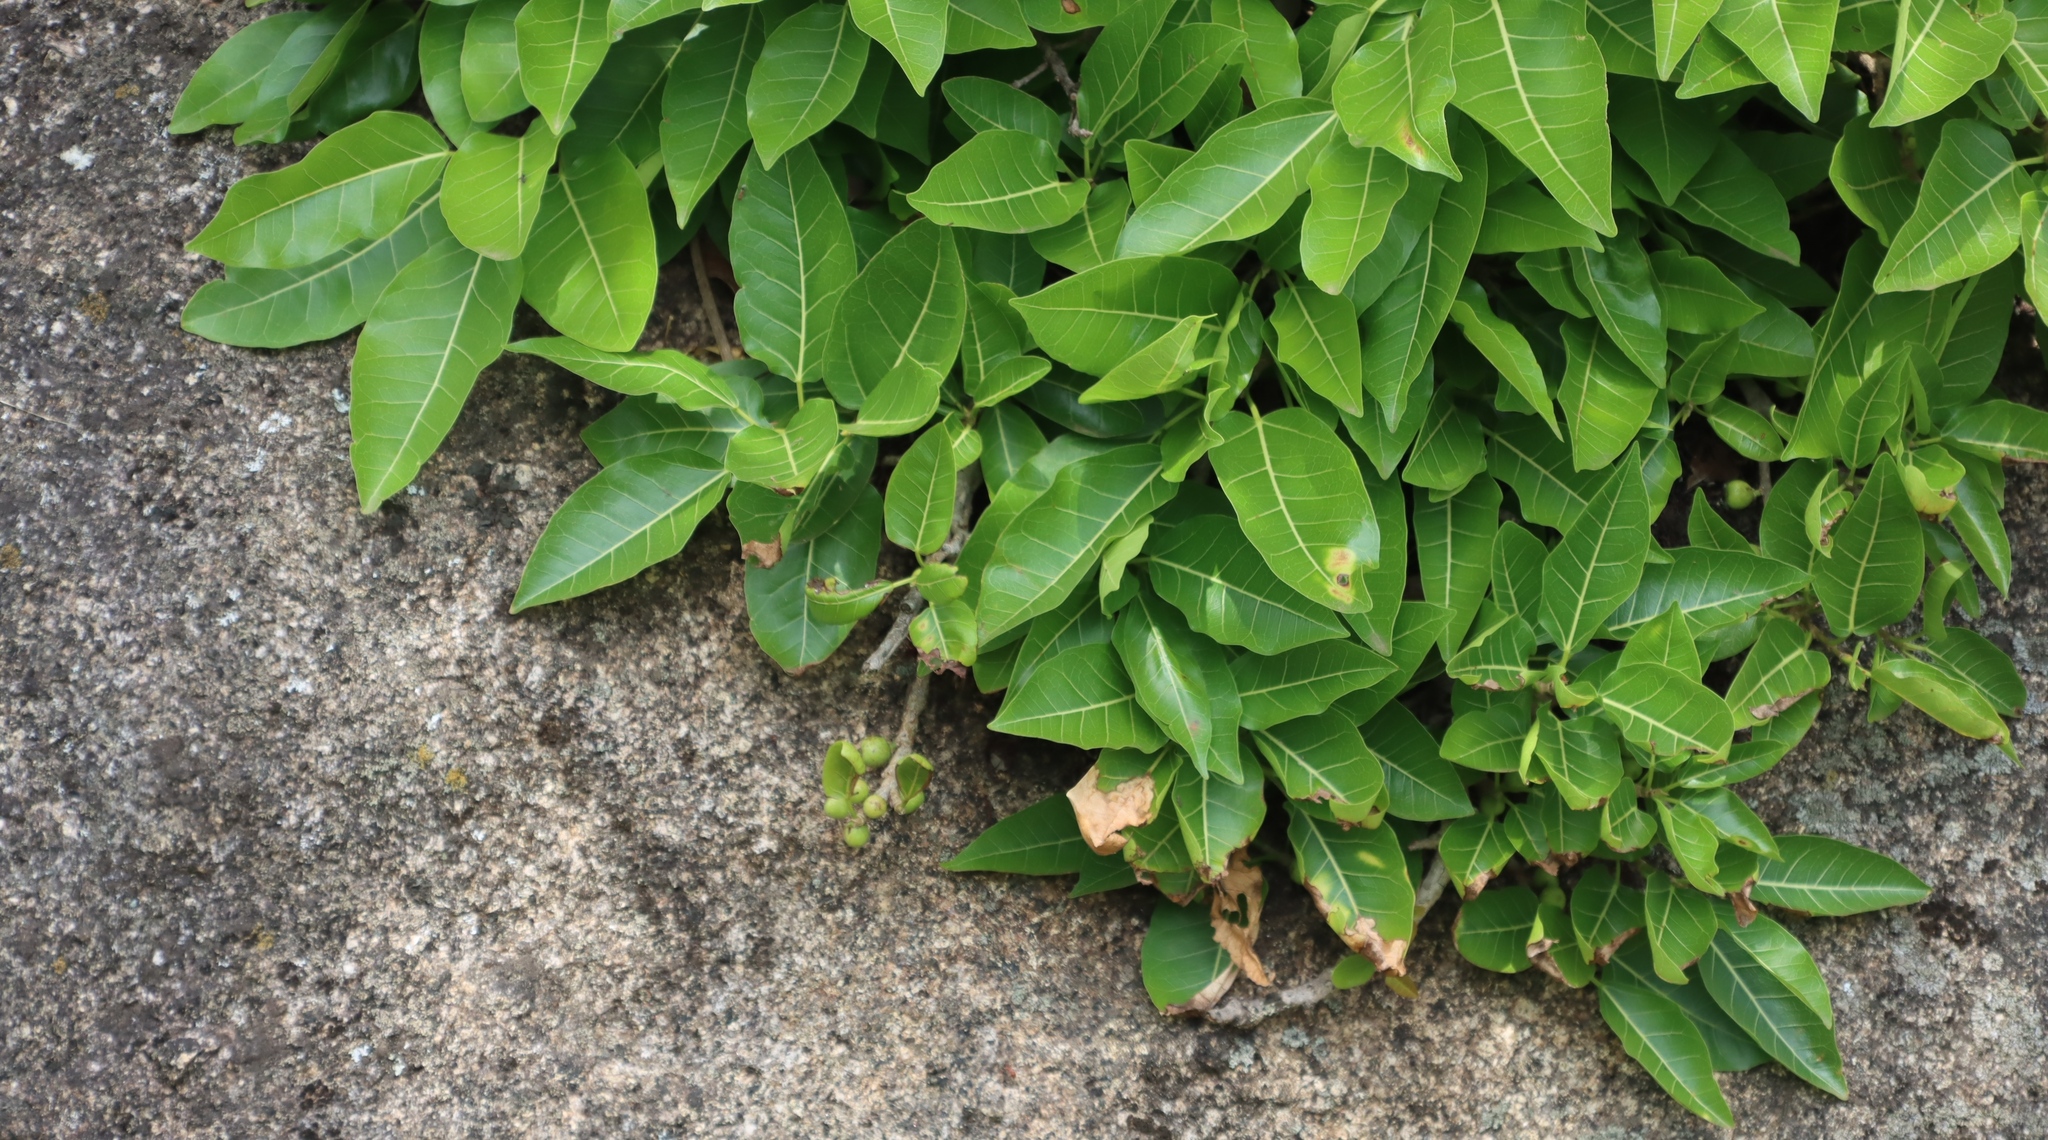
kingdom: Plantae
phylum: Tracheophyta
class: Magnoliopsida
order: Rosales
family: Moraceae
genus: Ficus
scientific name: Ficus ingens
